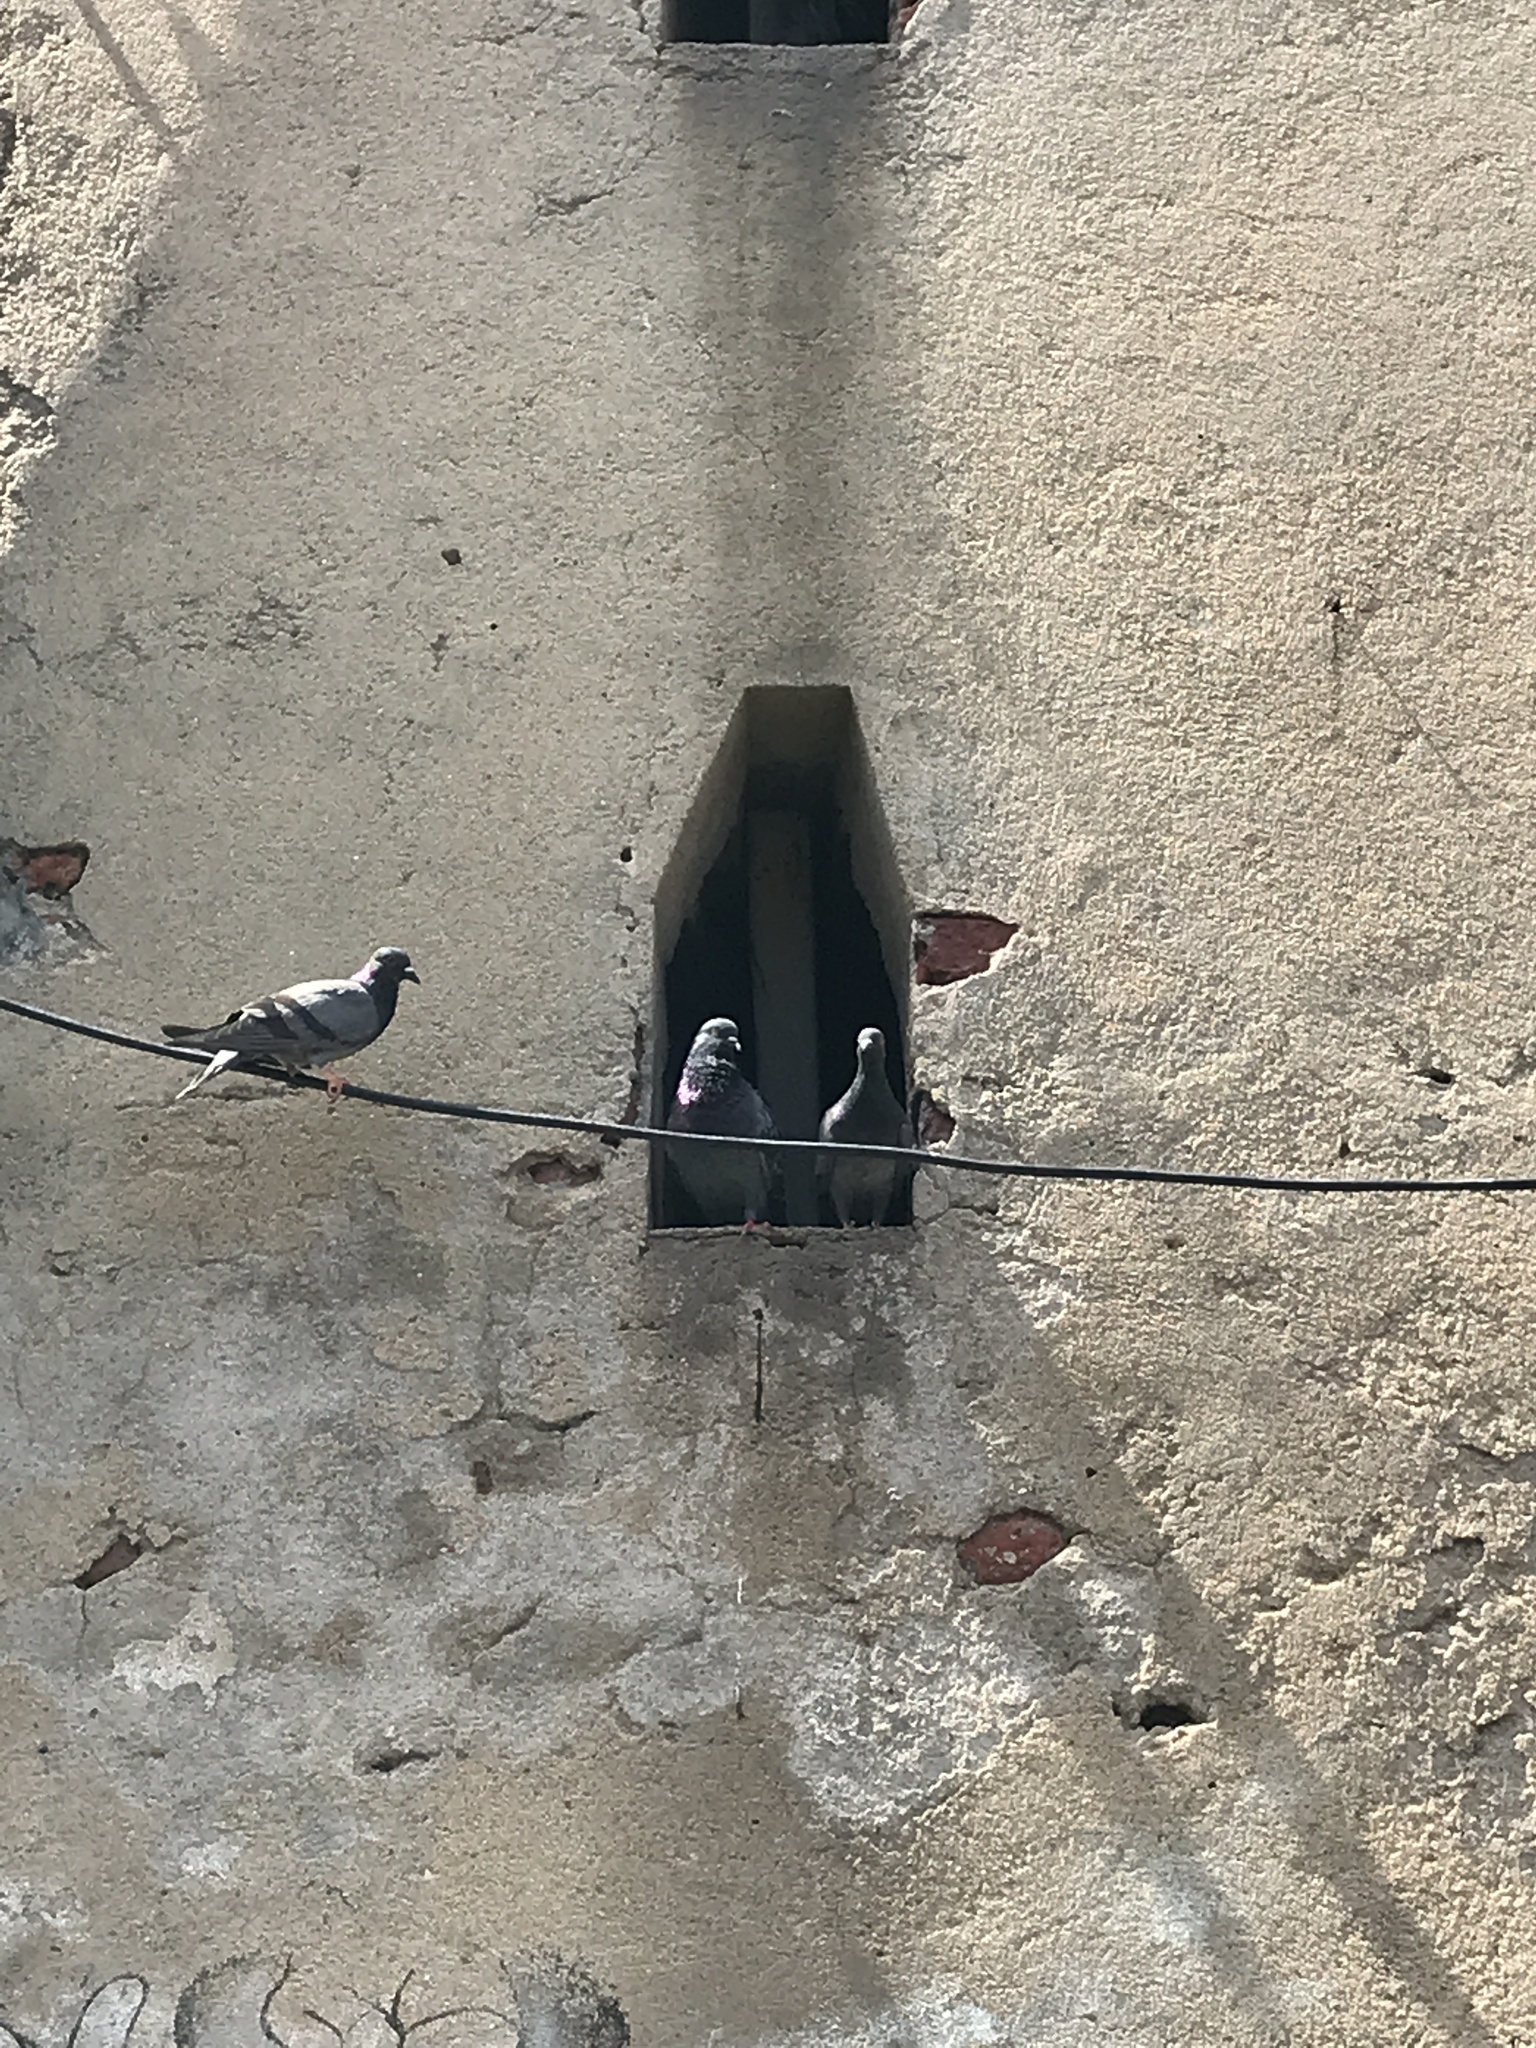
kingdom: Animalia
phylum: Chordata
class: Aves
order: Columbiformes
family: Columbidae
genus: Columba
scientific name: Columba livia
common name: Rock pigeon
